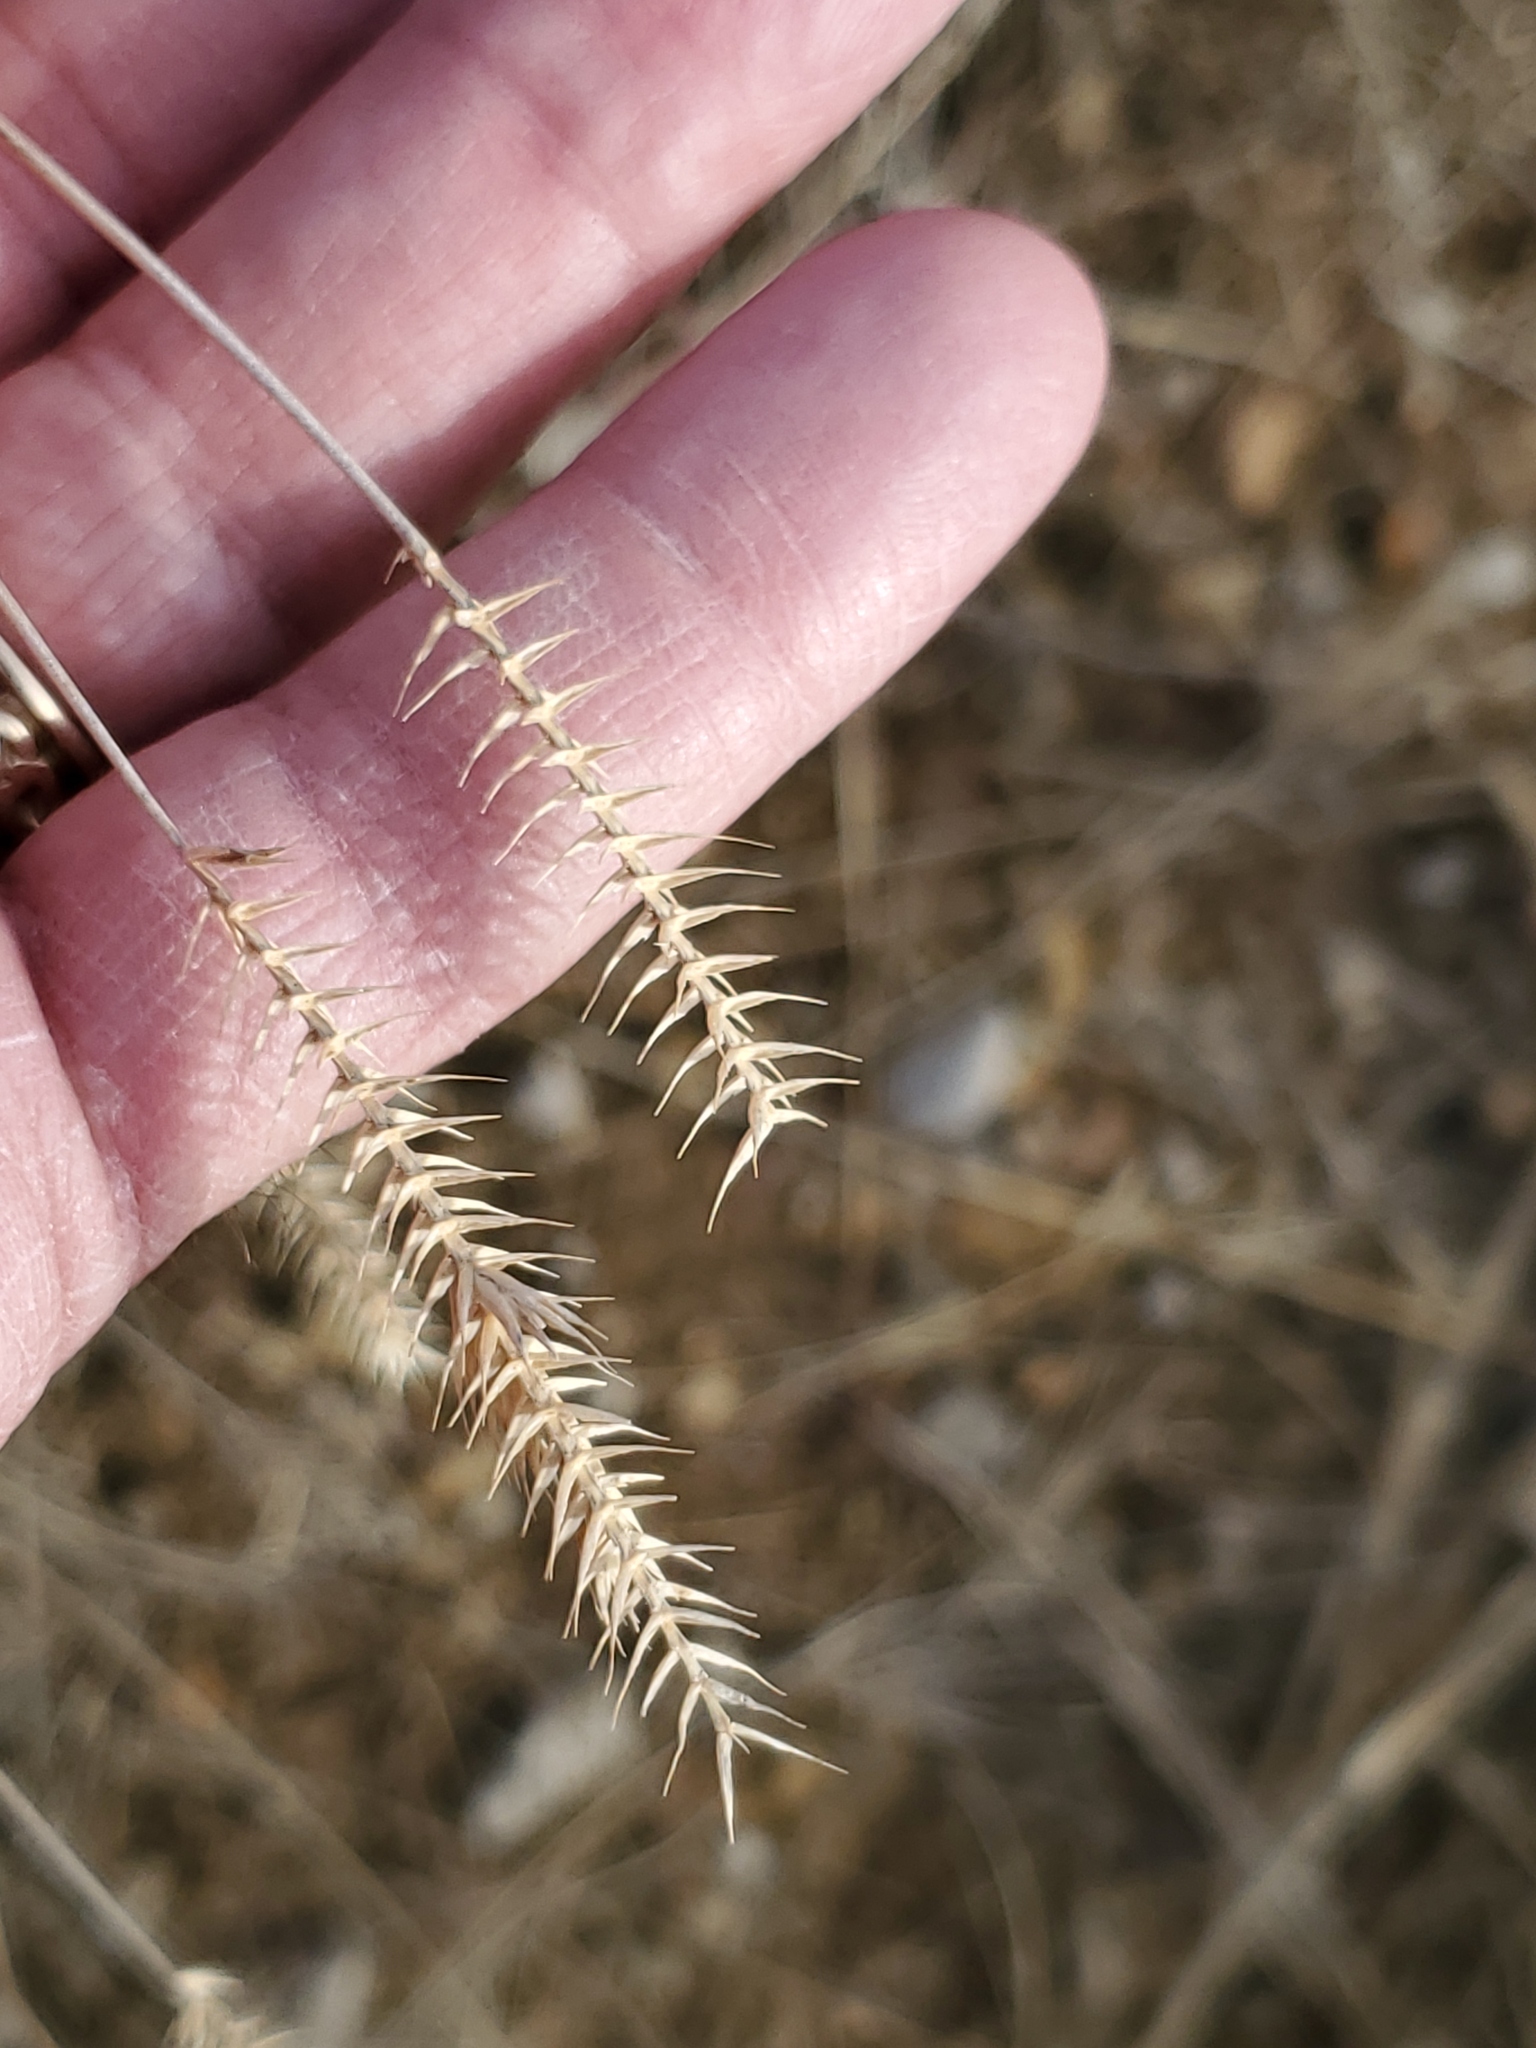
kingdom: Plantae
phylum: Tracheophyta
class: Liliopsida
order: Poales
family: Poaceae
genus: Agropyron
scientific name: Agropyron cristatum
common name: Crested wheatgrass
